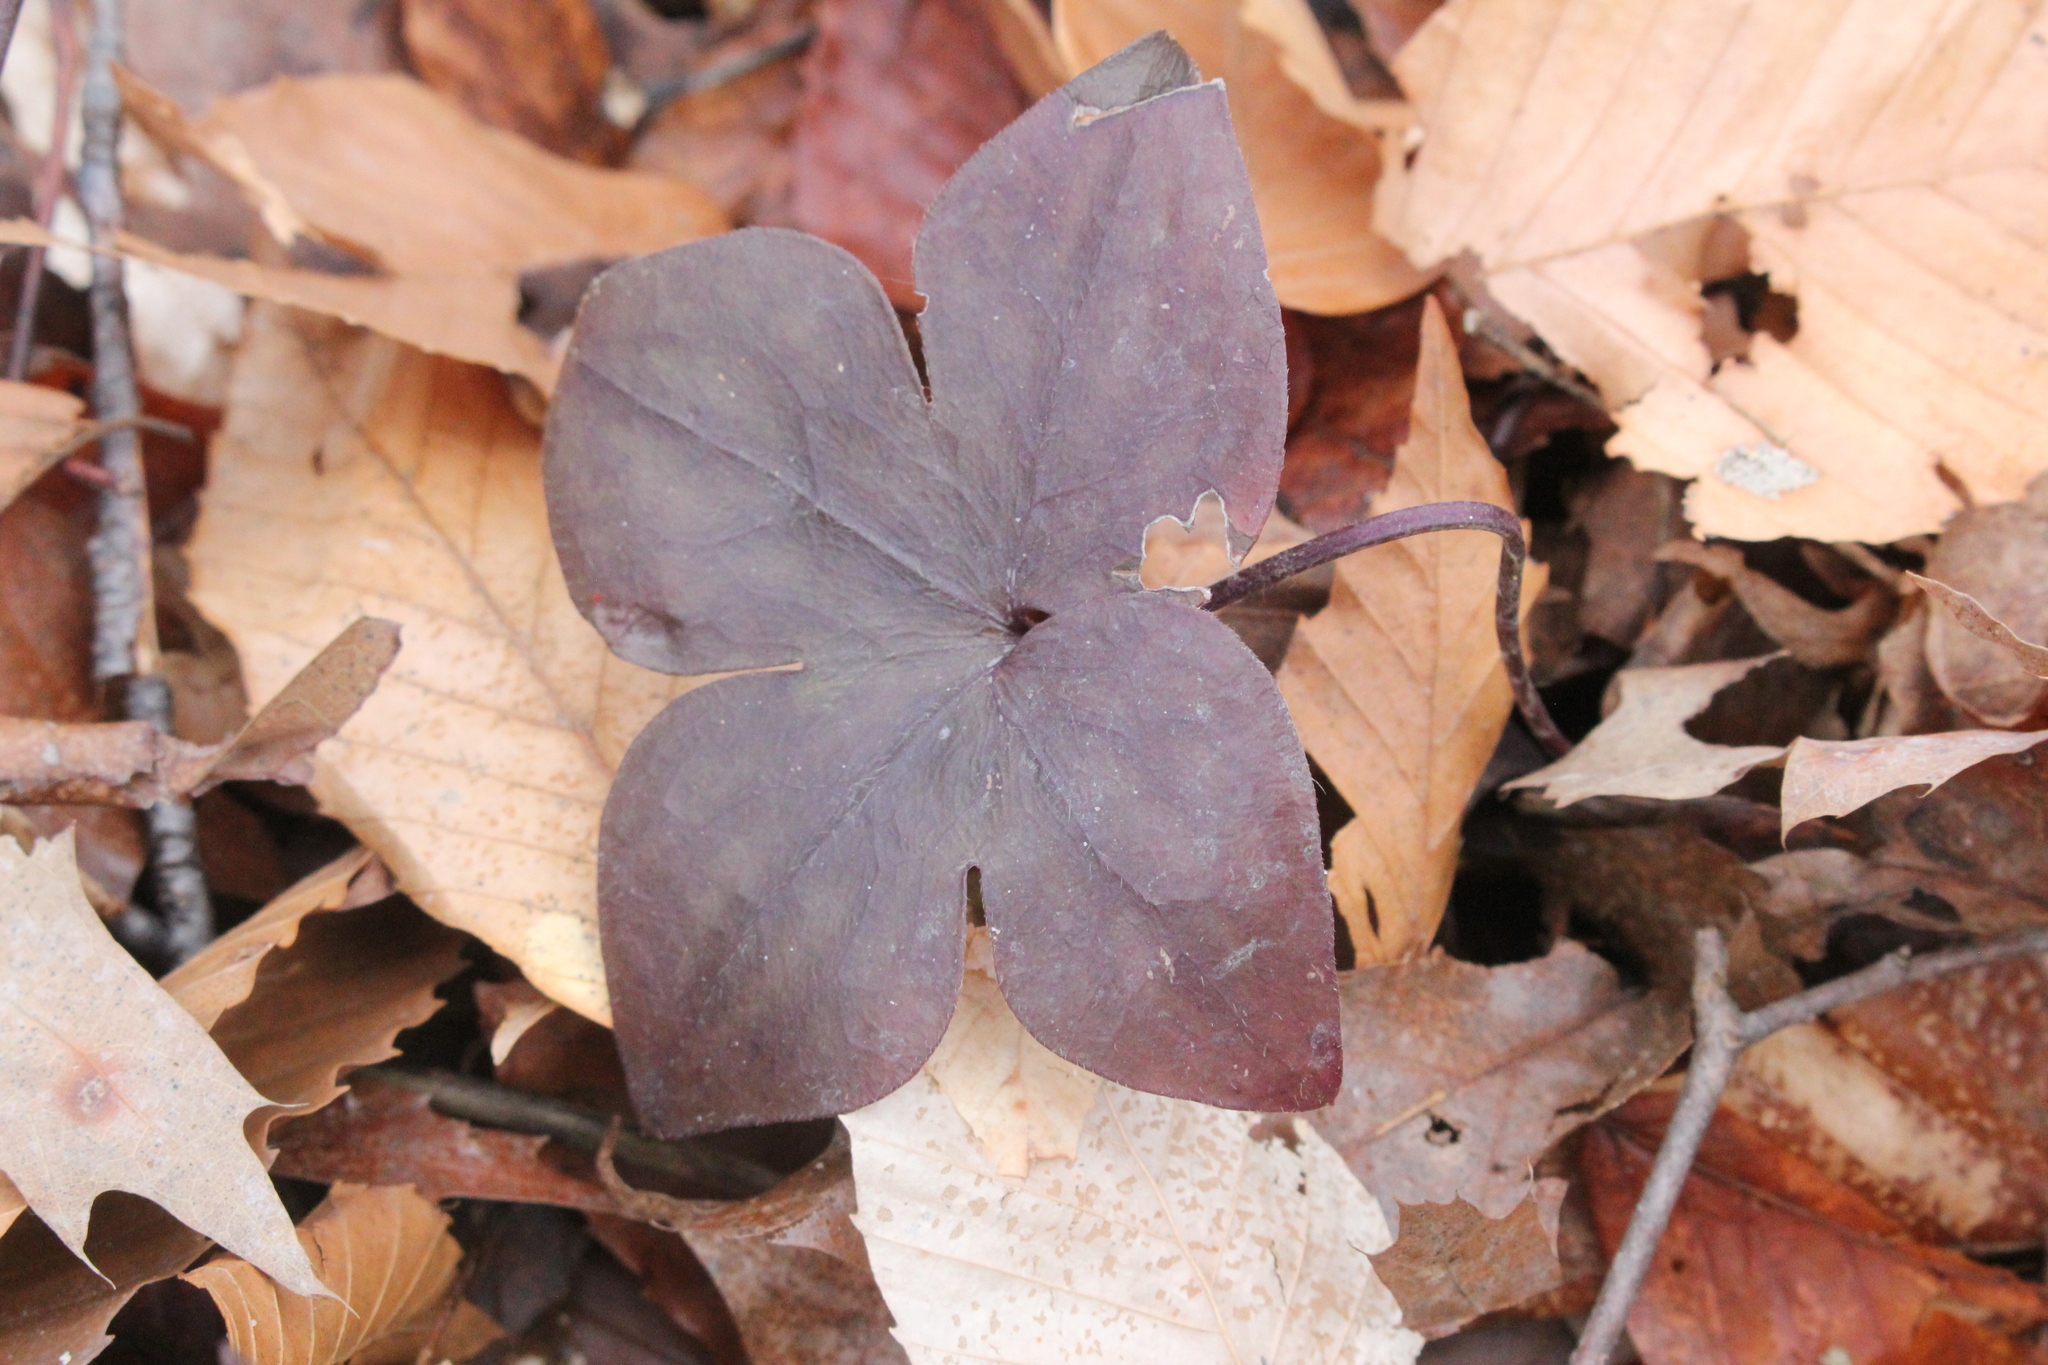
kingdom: Plantae
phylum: Tracheophyta
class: Magnoliopsida
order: Ranunculales
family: Ranunculaceae
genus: Hepatica
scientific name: Hepatica acutiloba
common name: Sharp-lobed hepatica
